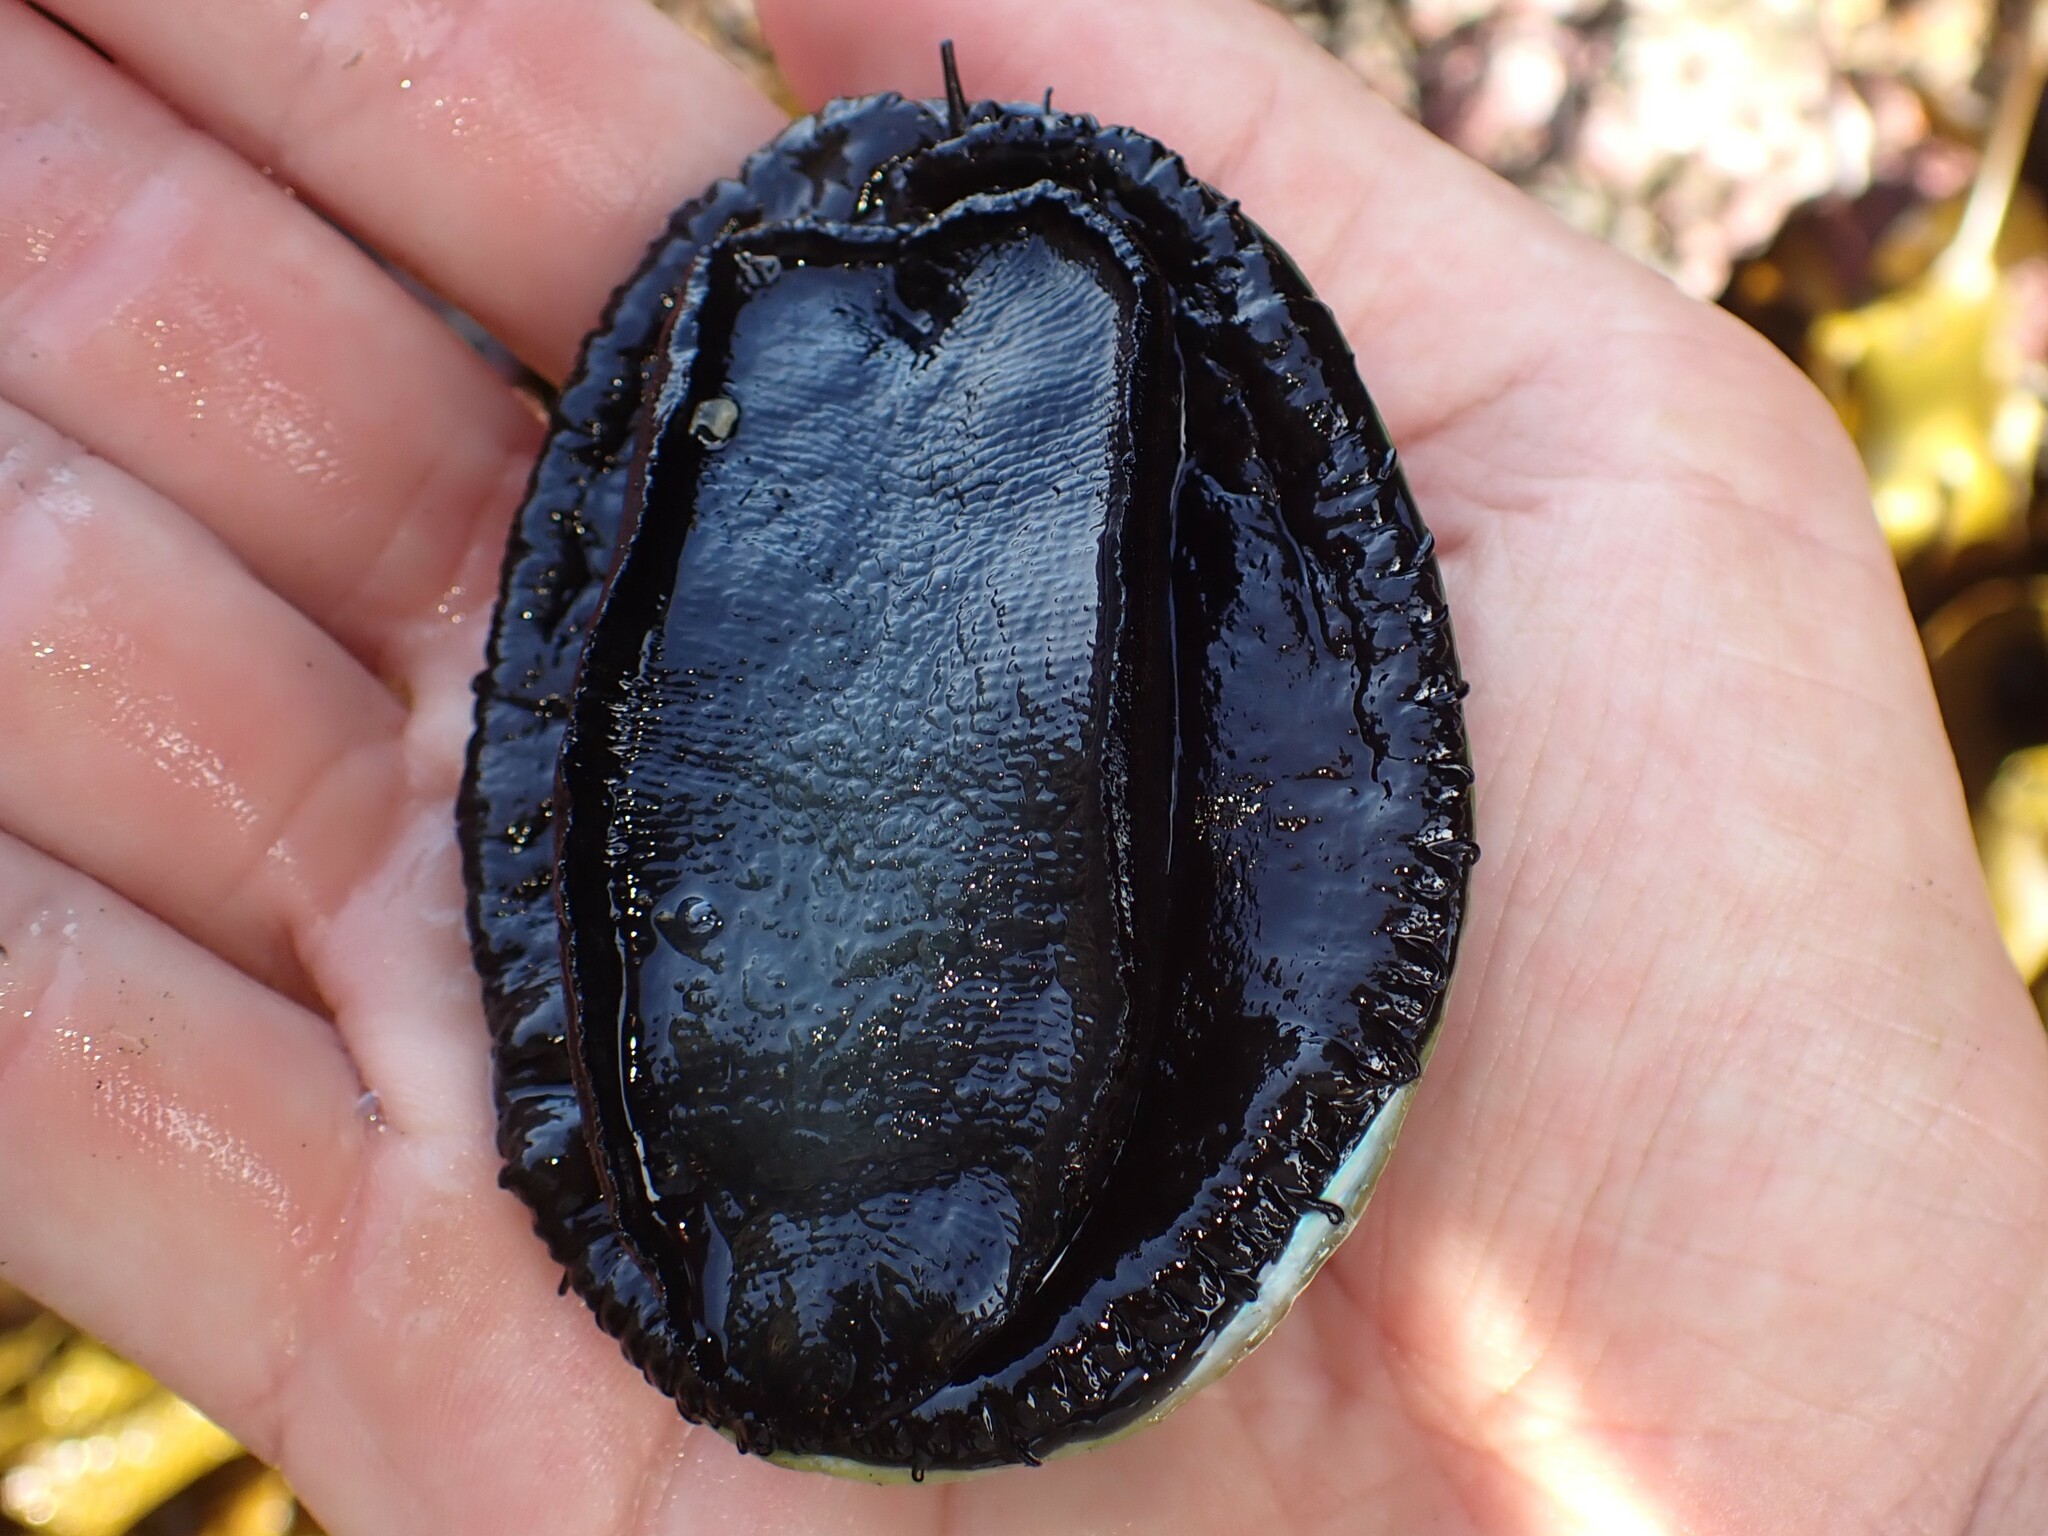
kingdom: Animalia
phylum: Mollusca
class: Gastropoda
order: Lepetellida
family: Haliotidae
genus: Haliotis
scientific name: Haliotis iris
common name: Abalone
